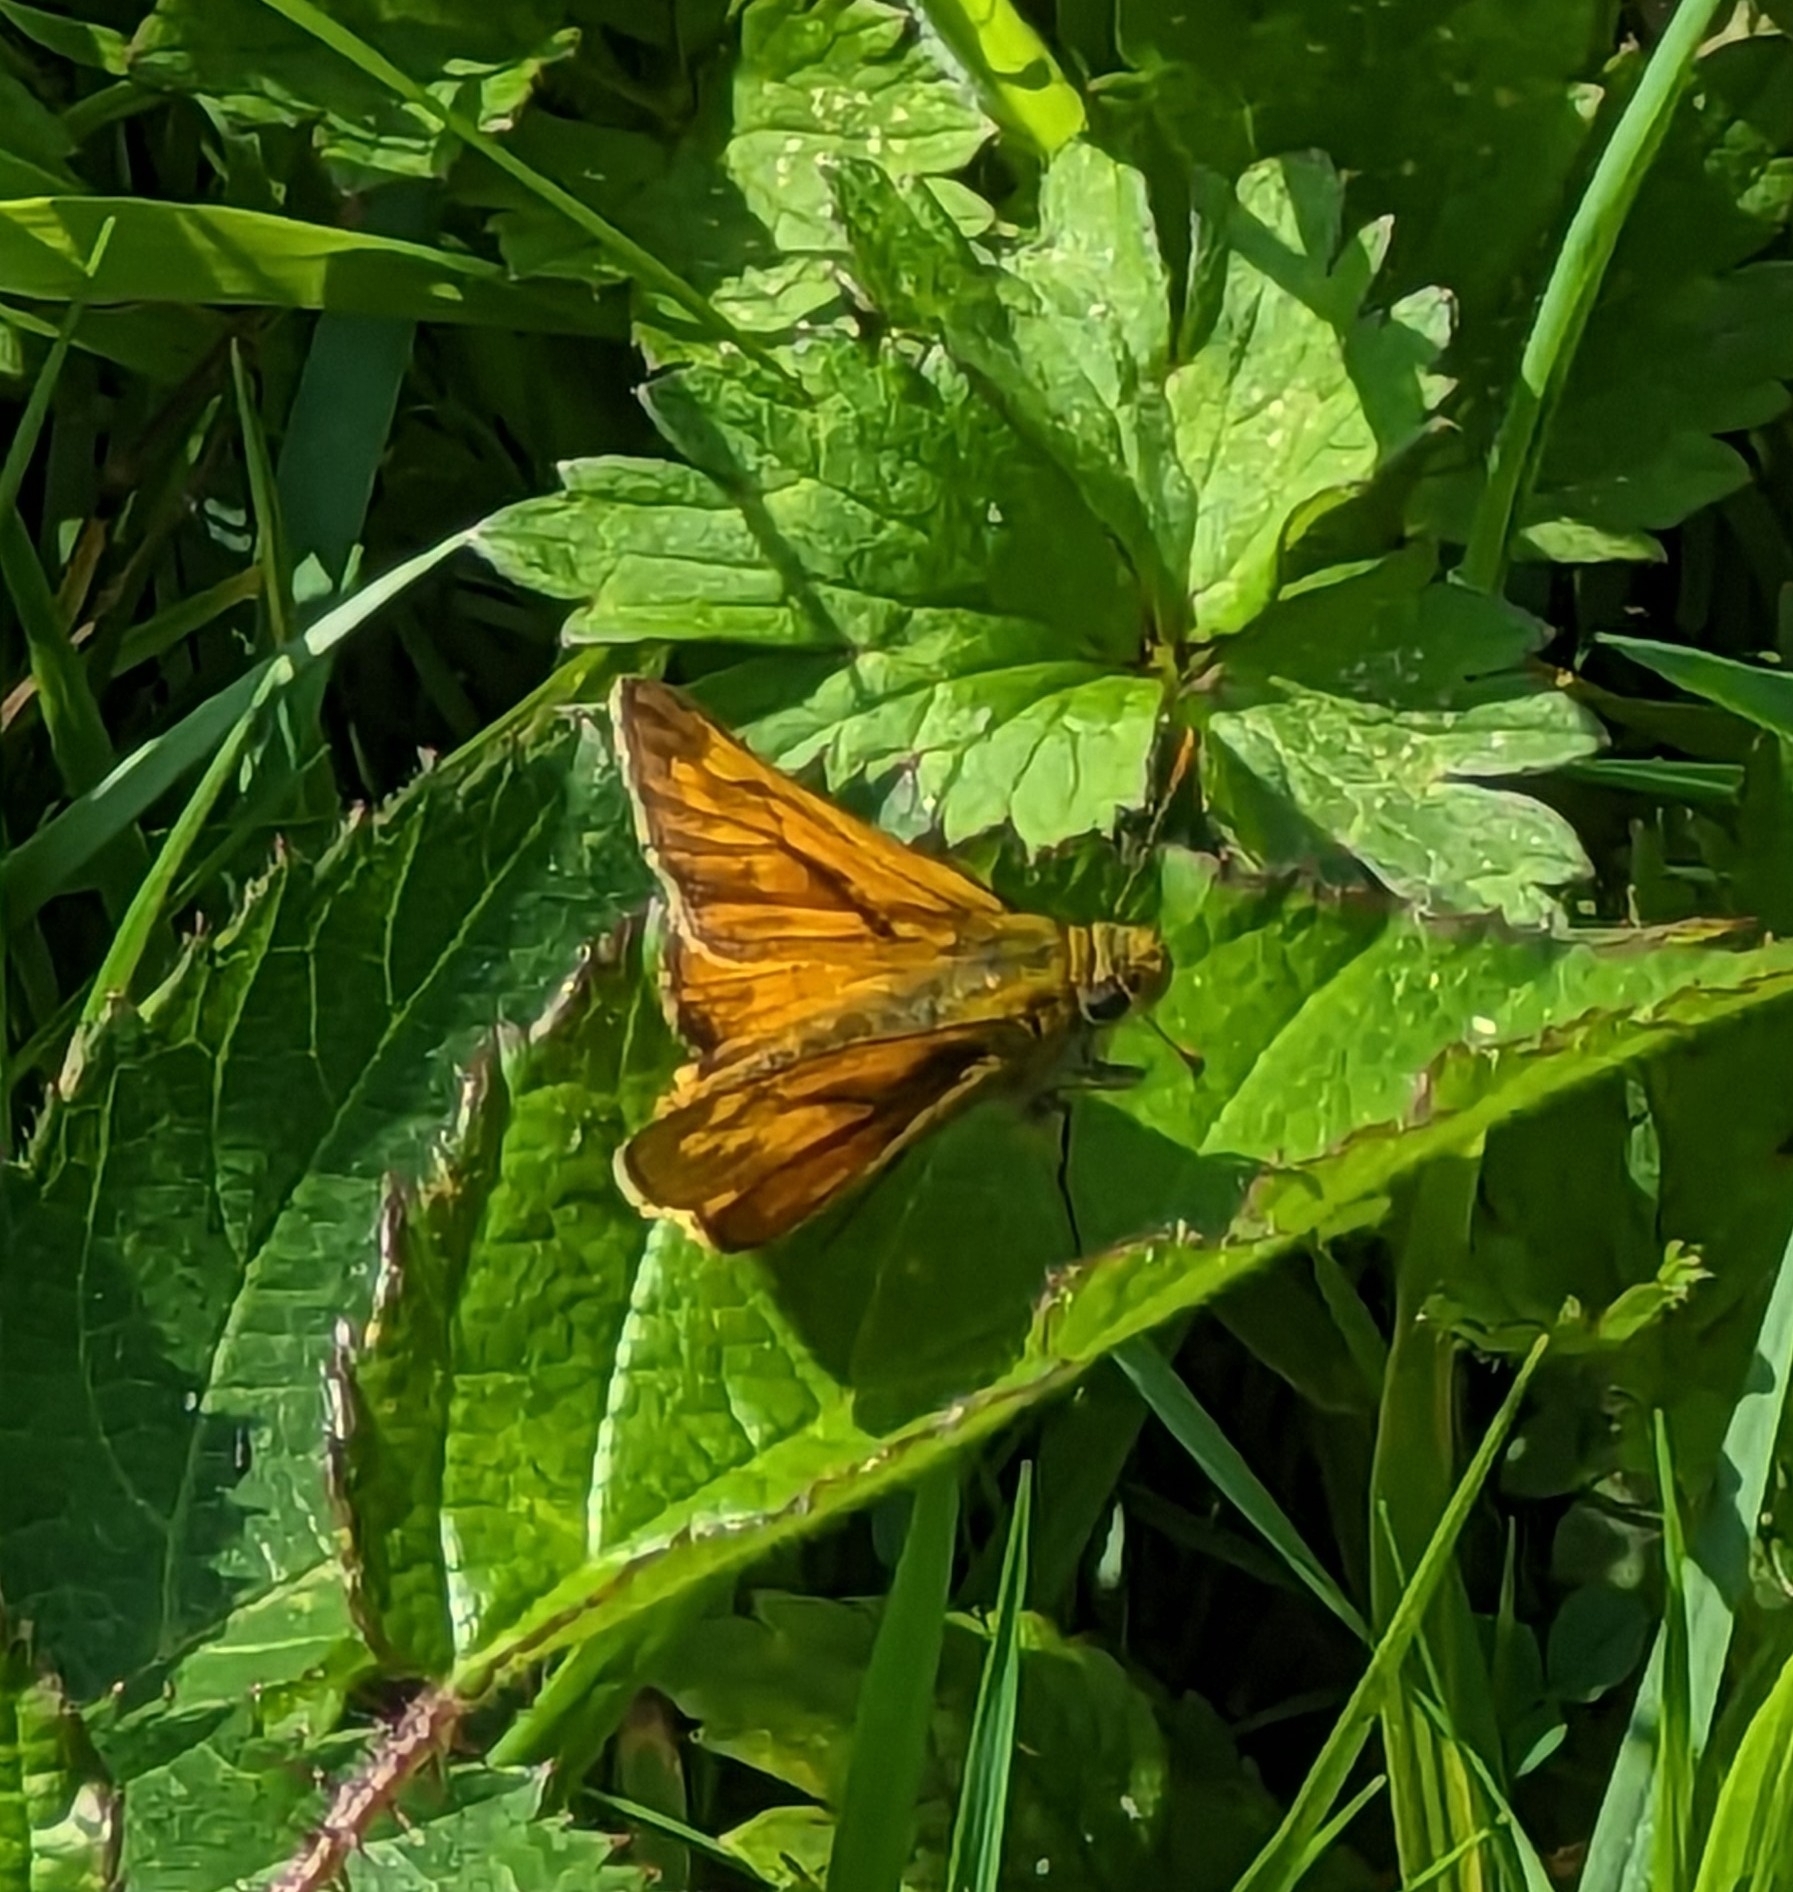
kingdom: Animalia
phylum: Arthropoda
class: Insecta
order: Lepidoptera
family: Hesperiidae
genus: Ochlodes
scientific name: Ochlodes venata
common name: Large skipper
